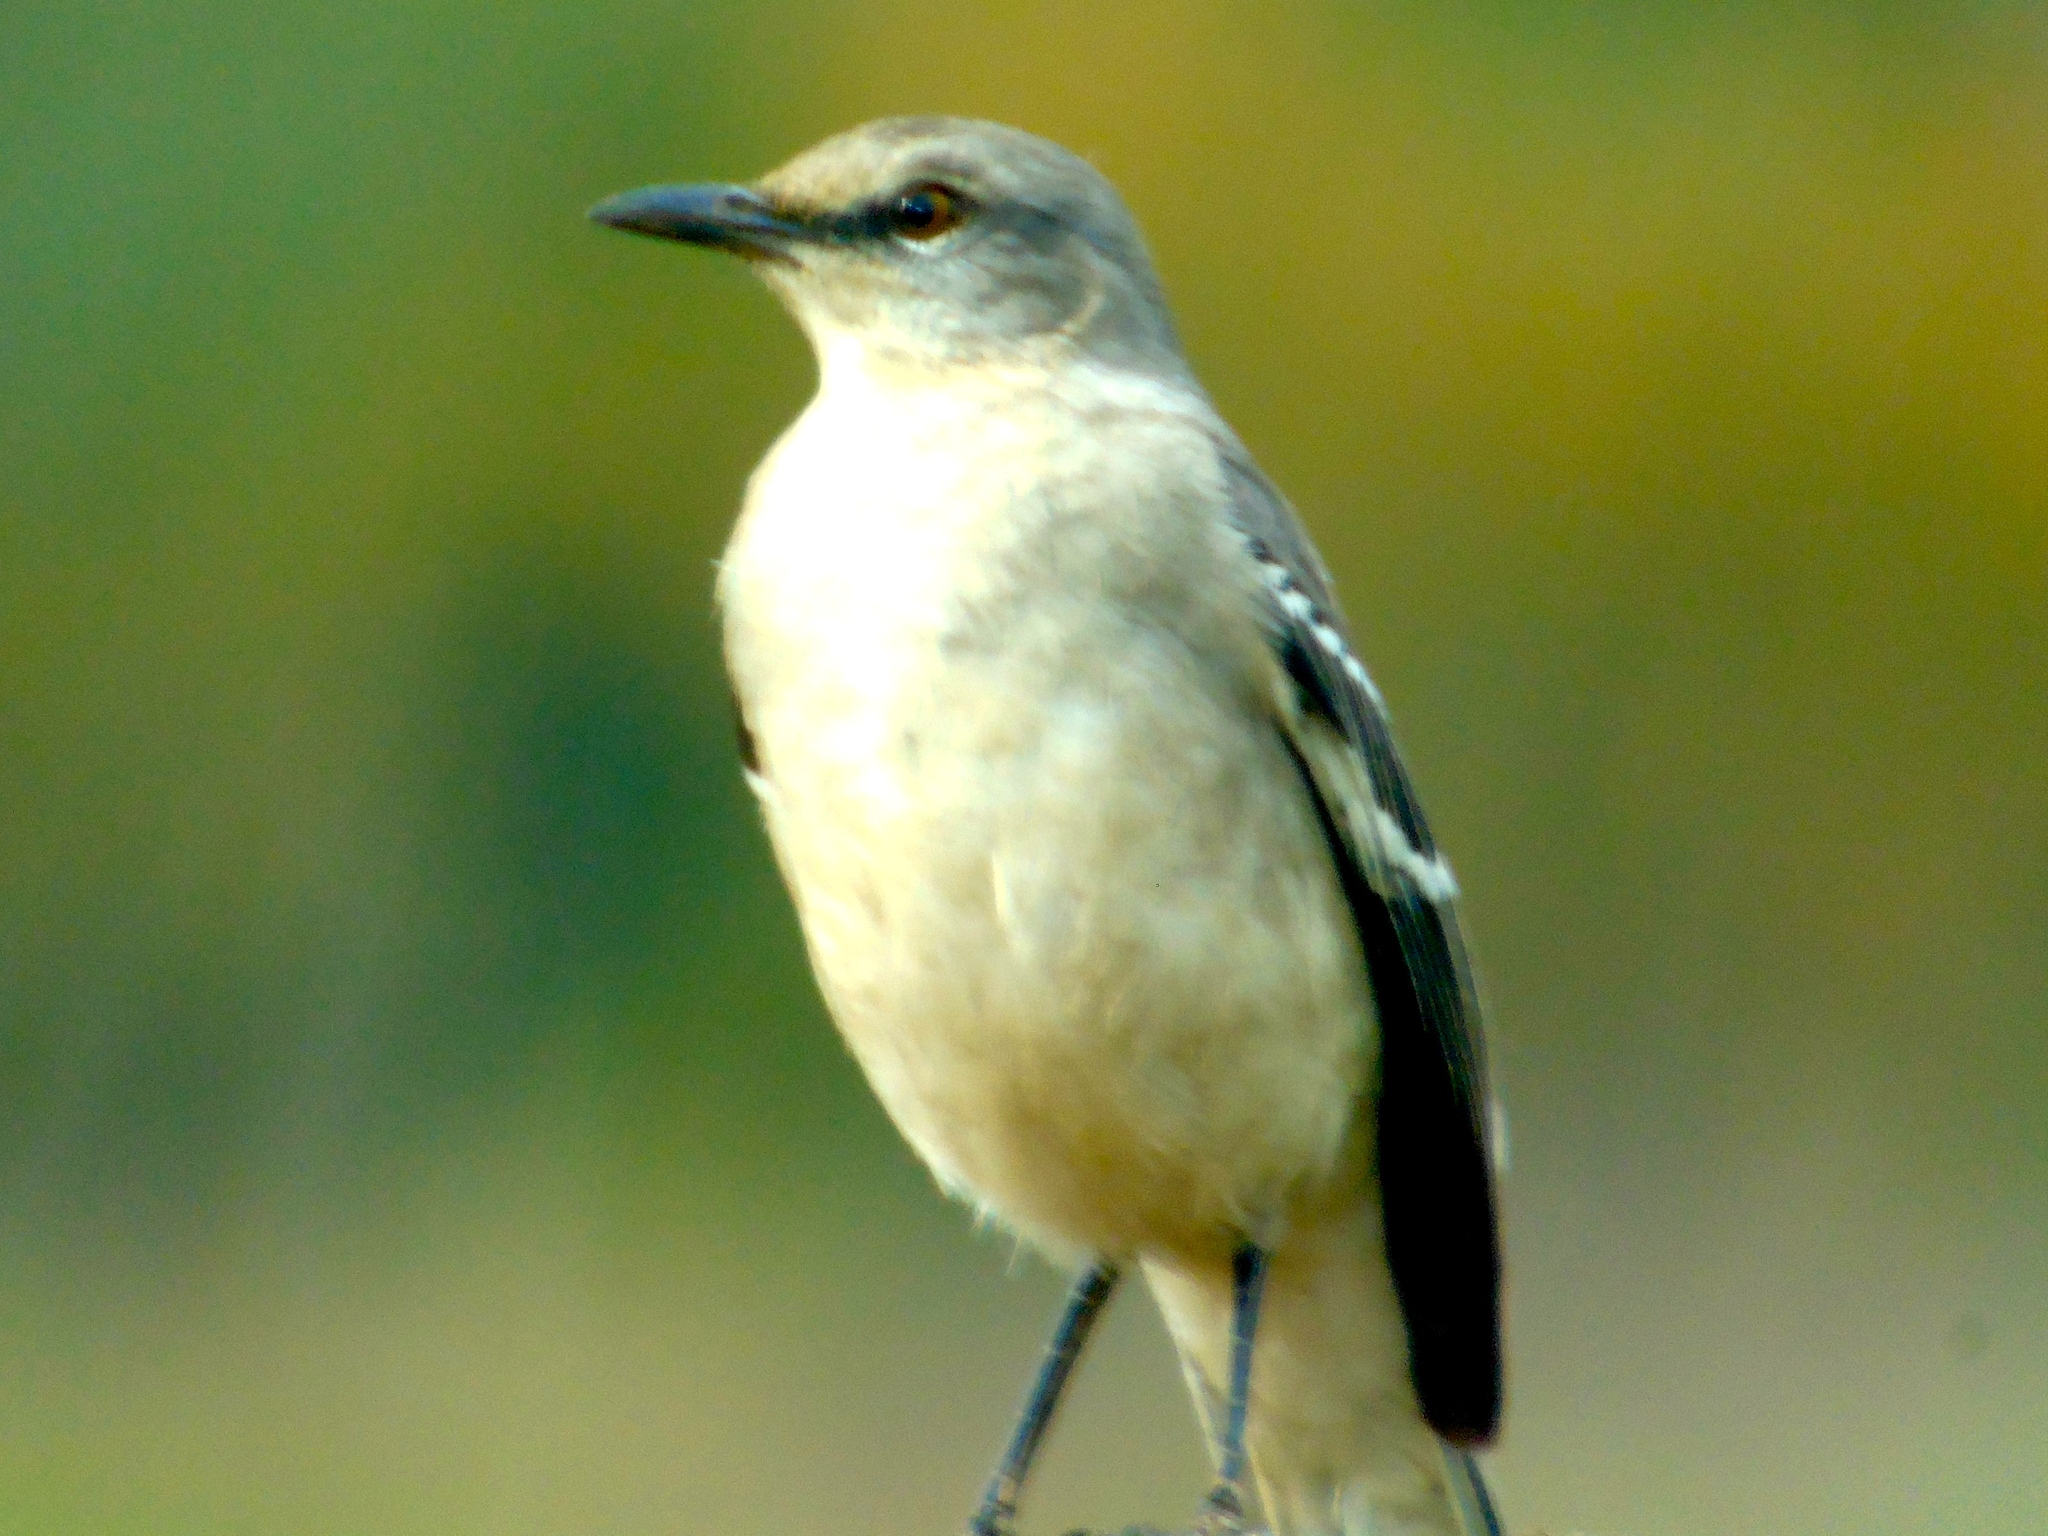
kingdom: Animalia
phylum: Chordata
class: Aves
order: Passeriformes
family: Mimidae
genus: Mimus
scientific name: Mimus polyglottos
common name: Northern mockingbird
